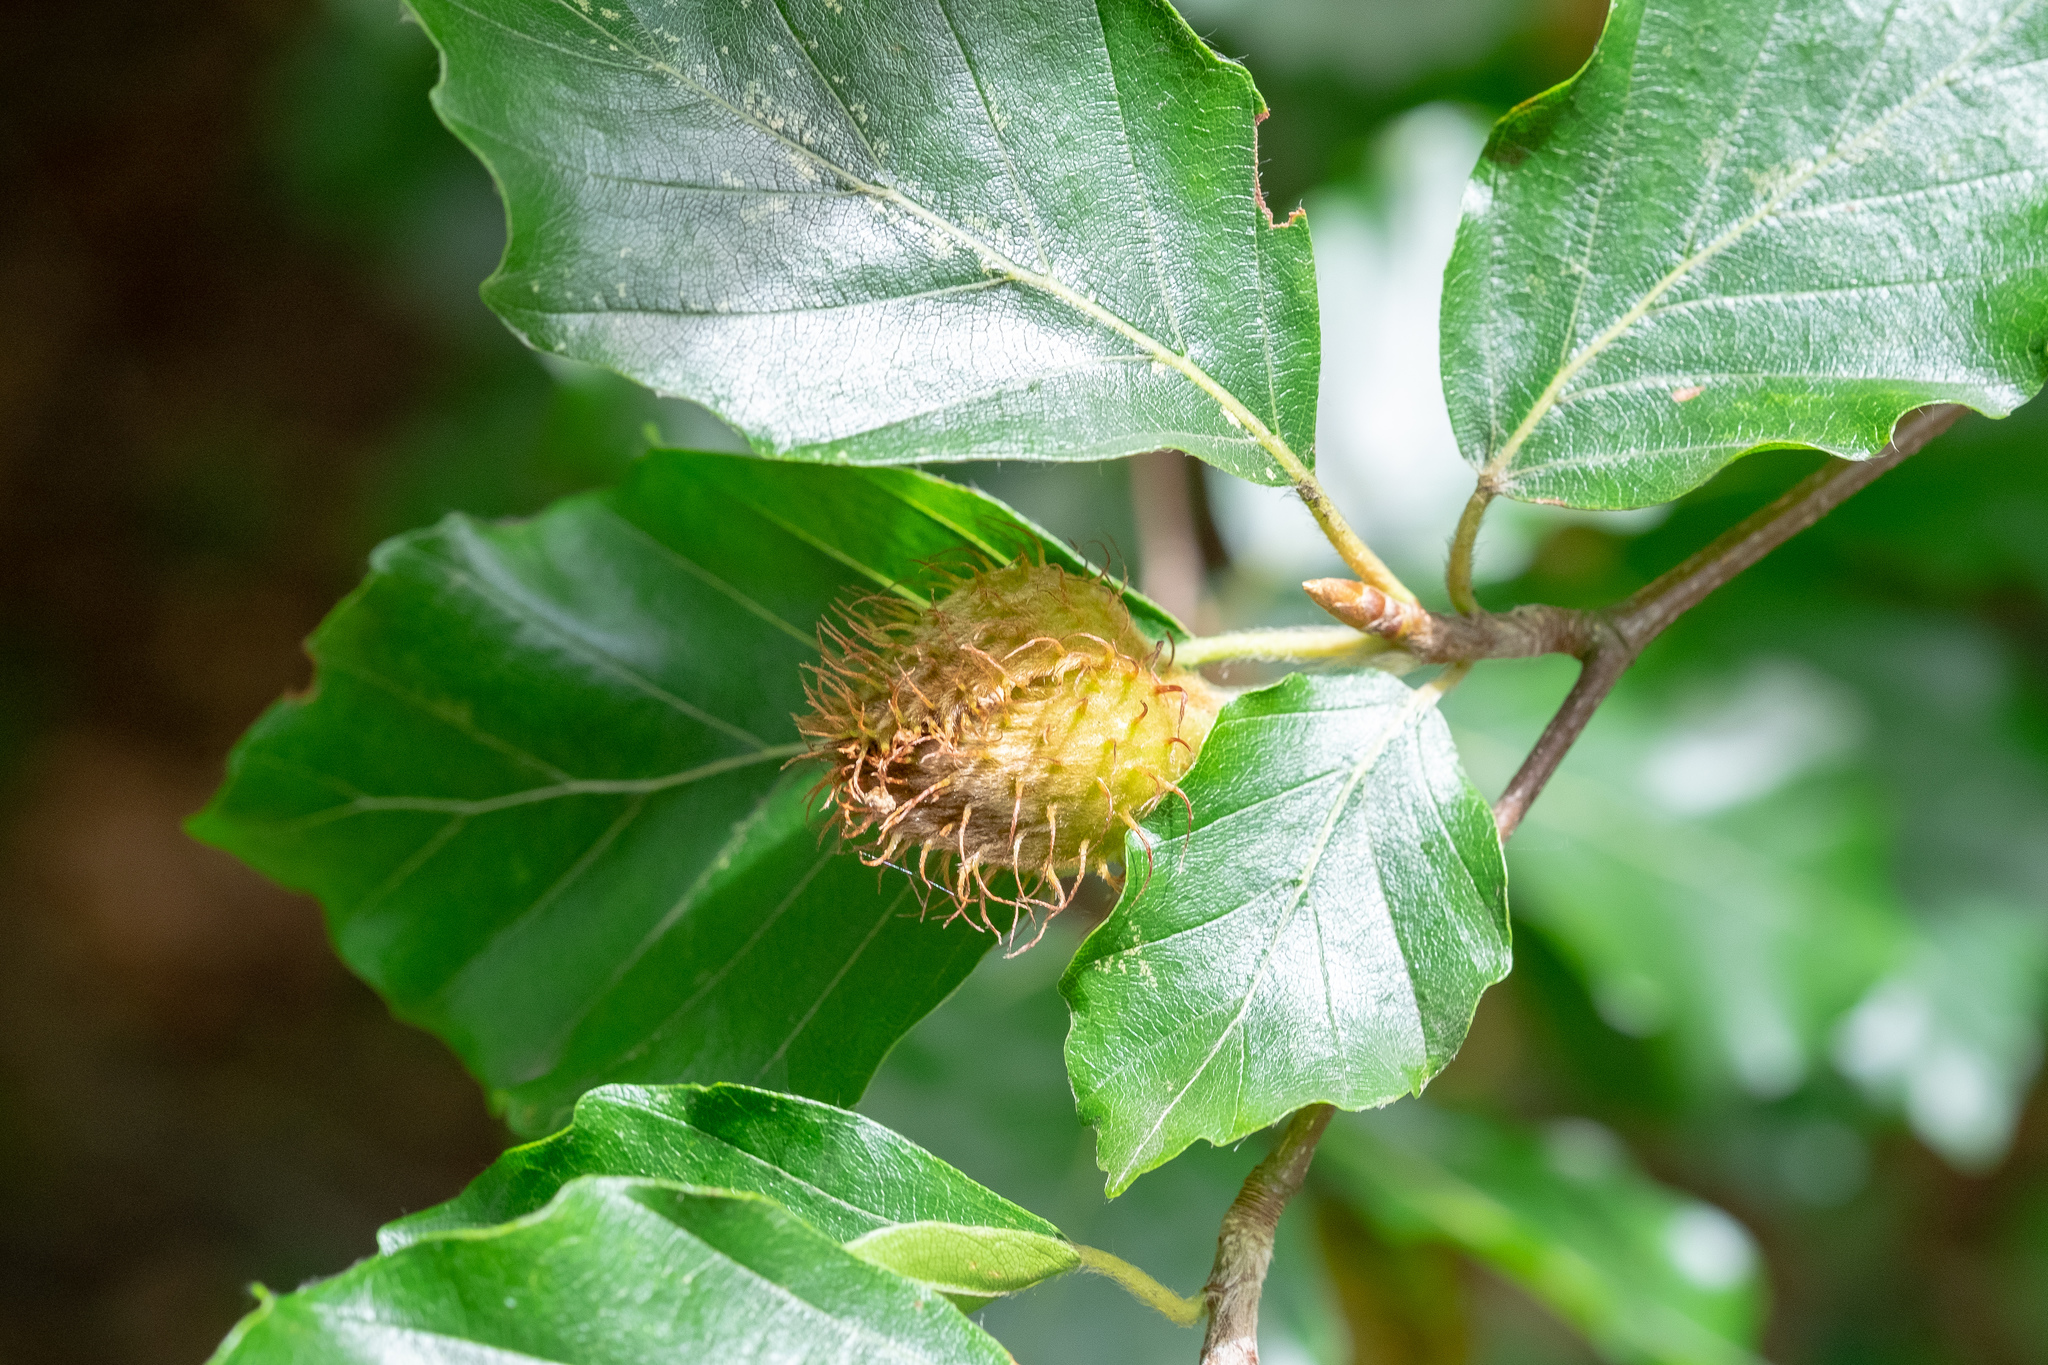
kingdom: Plantae
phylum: Tracheophyta
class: Magnoliopsida
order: Fagales
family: Fagaceae
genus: Fagus
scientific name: Fagus sylvatica
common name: Beech
